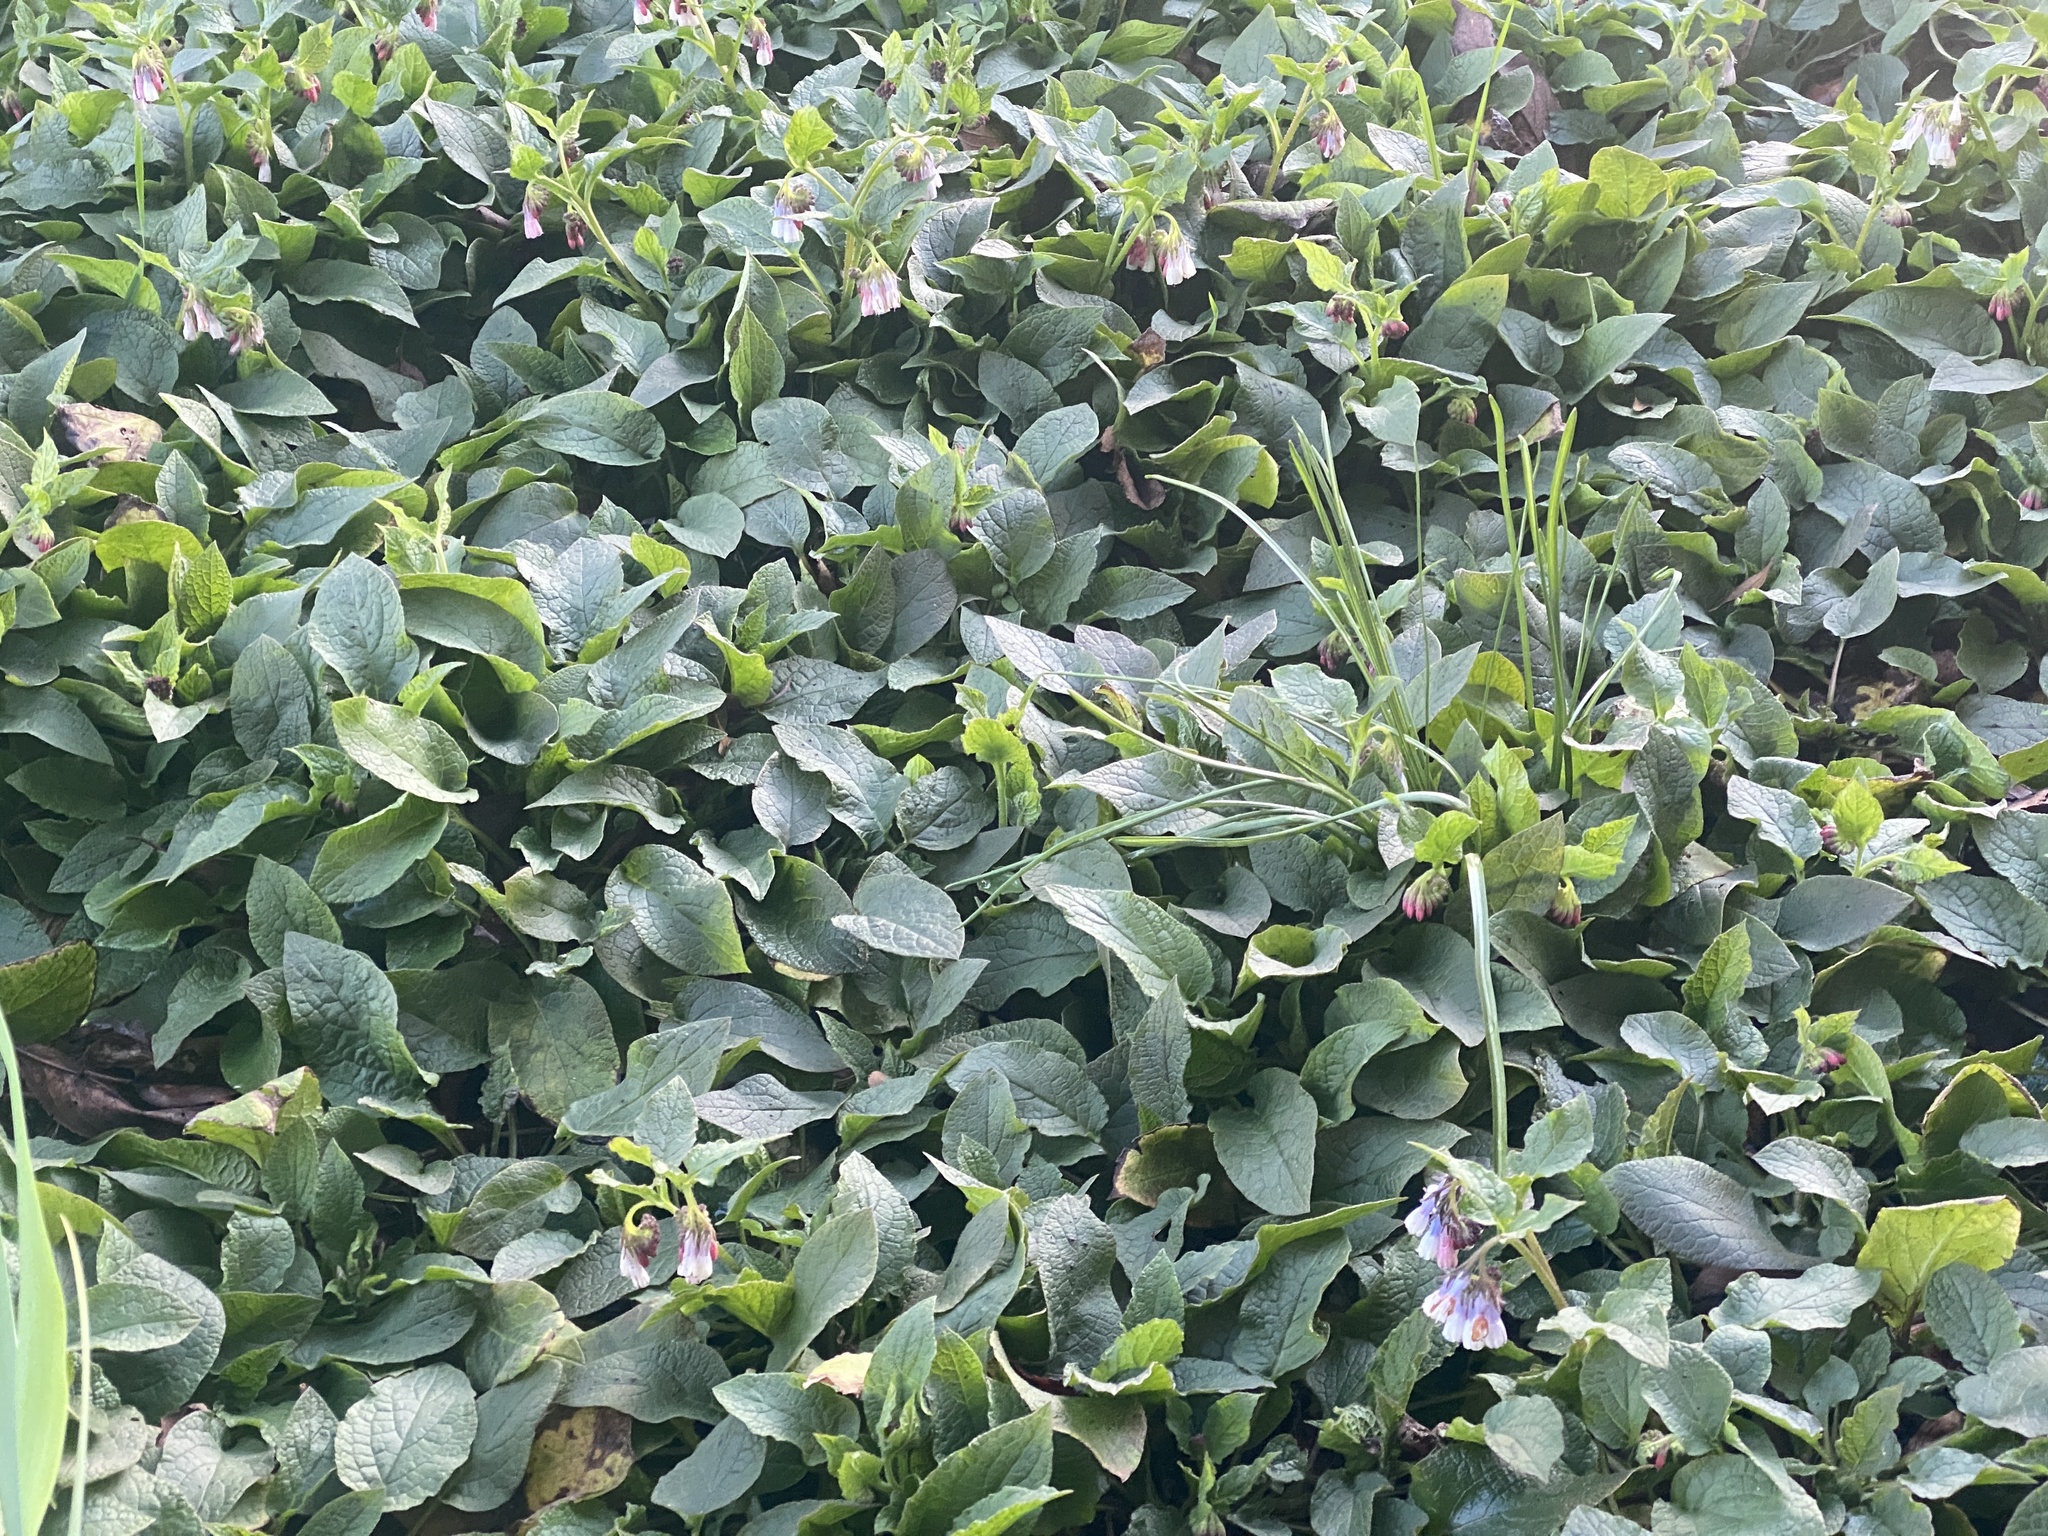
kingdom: Plantae
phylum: Tracheophyta
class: Magnoliopsida
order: Boraginales
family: Boraginaceae
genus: Symphytum
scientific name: Symphytum hidcotense
